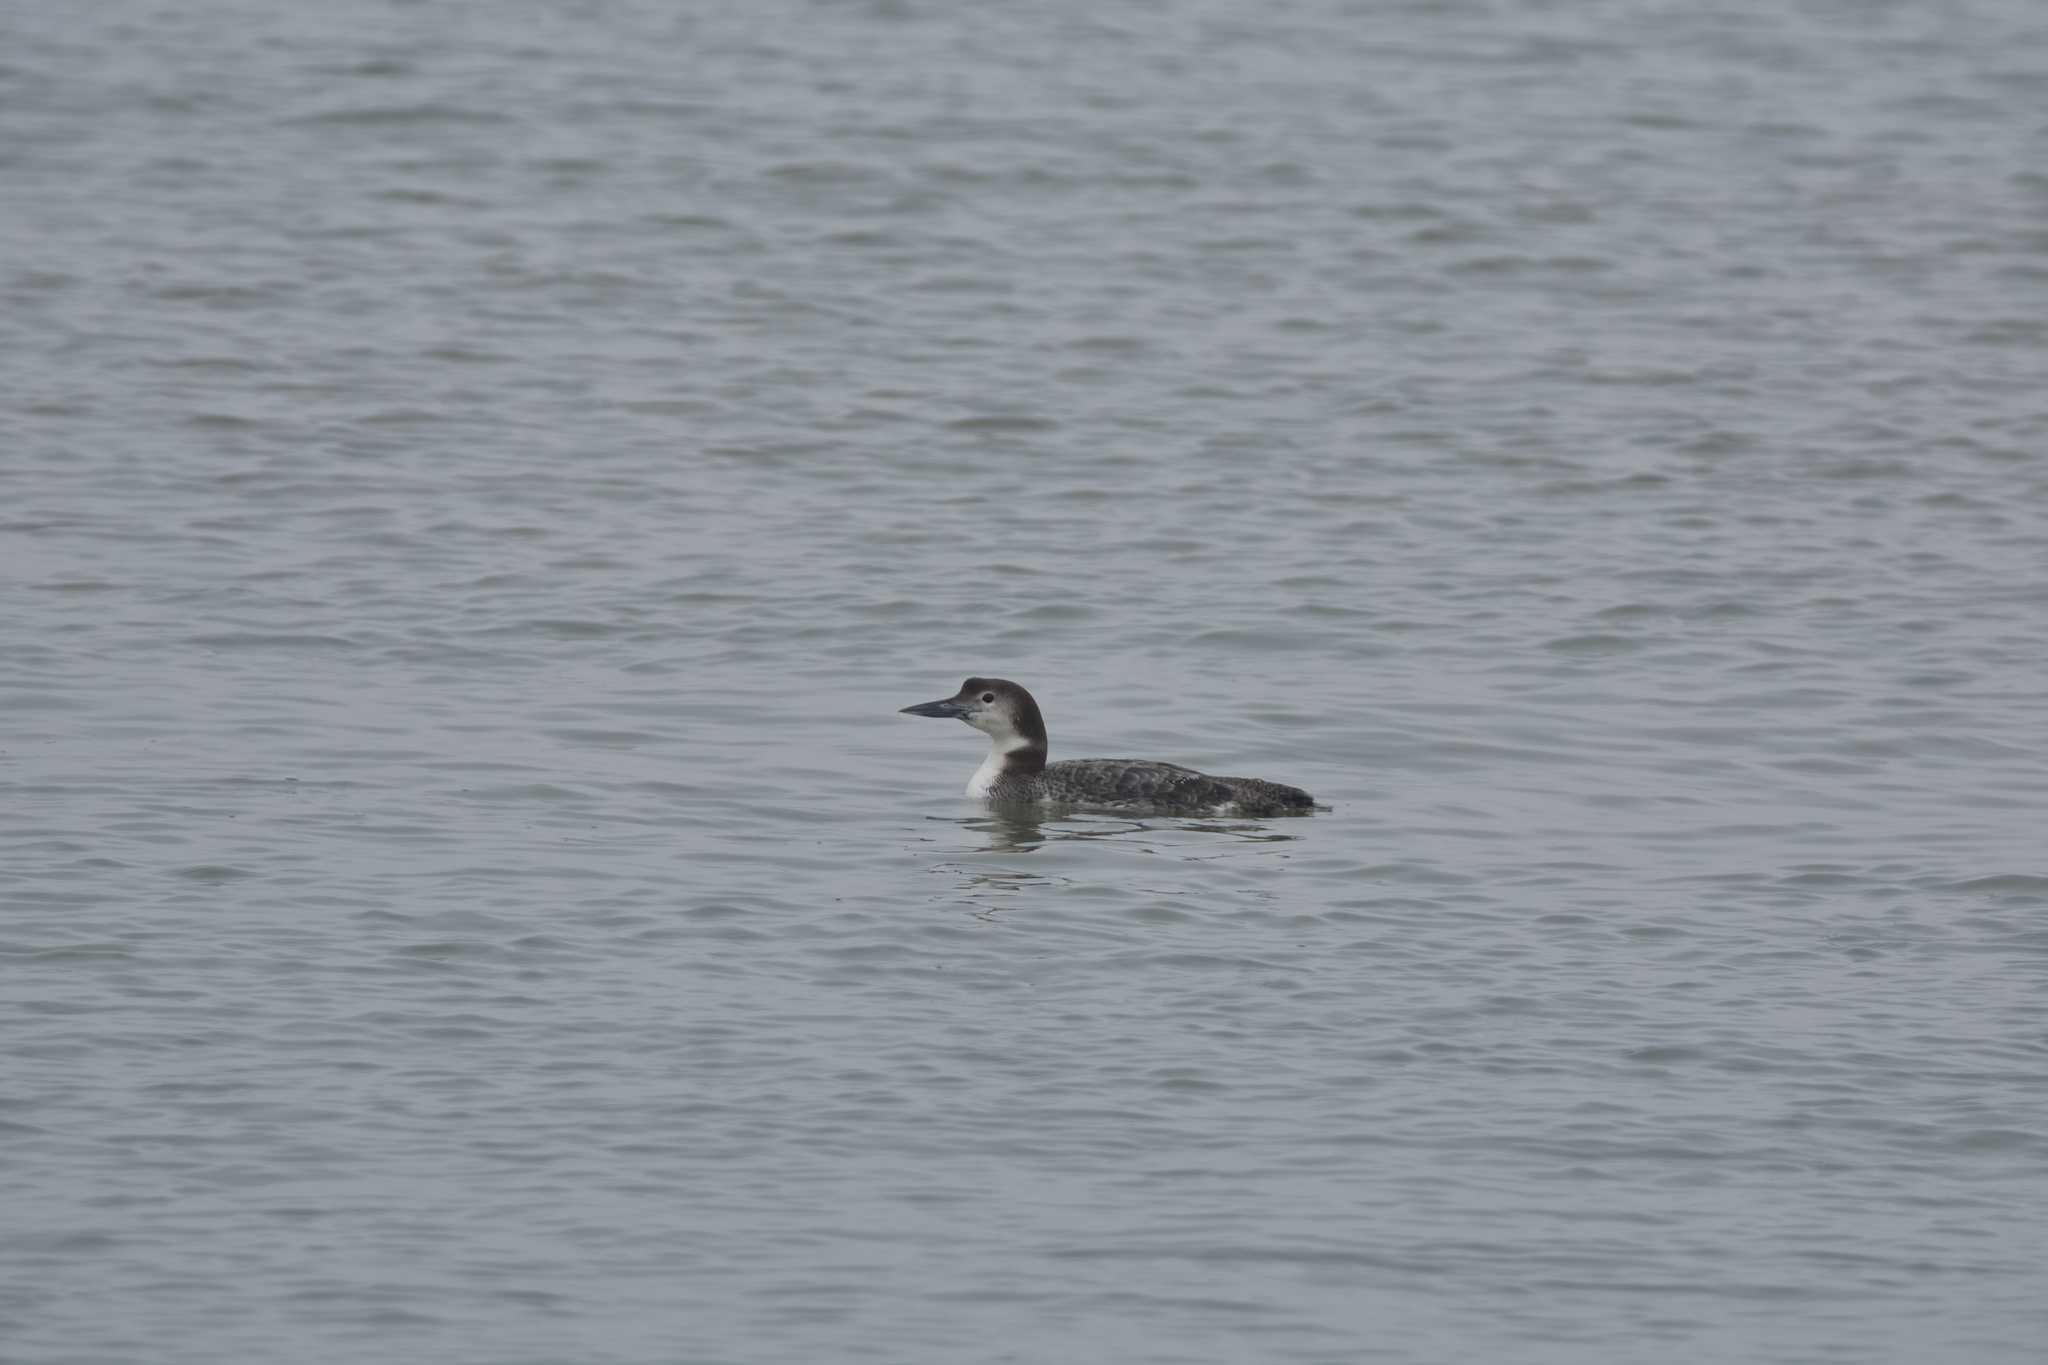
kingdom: Animalia
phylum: Chordata
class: Aves
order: Gaviiformes
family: Gaviidae
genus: Gavia
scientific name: Gavia immer
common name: Common loon
